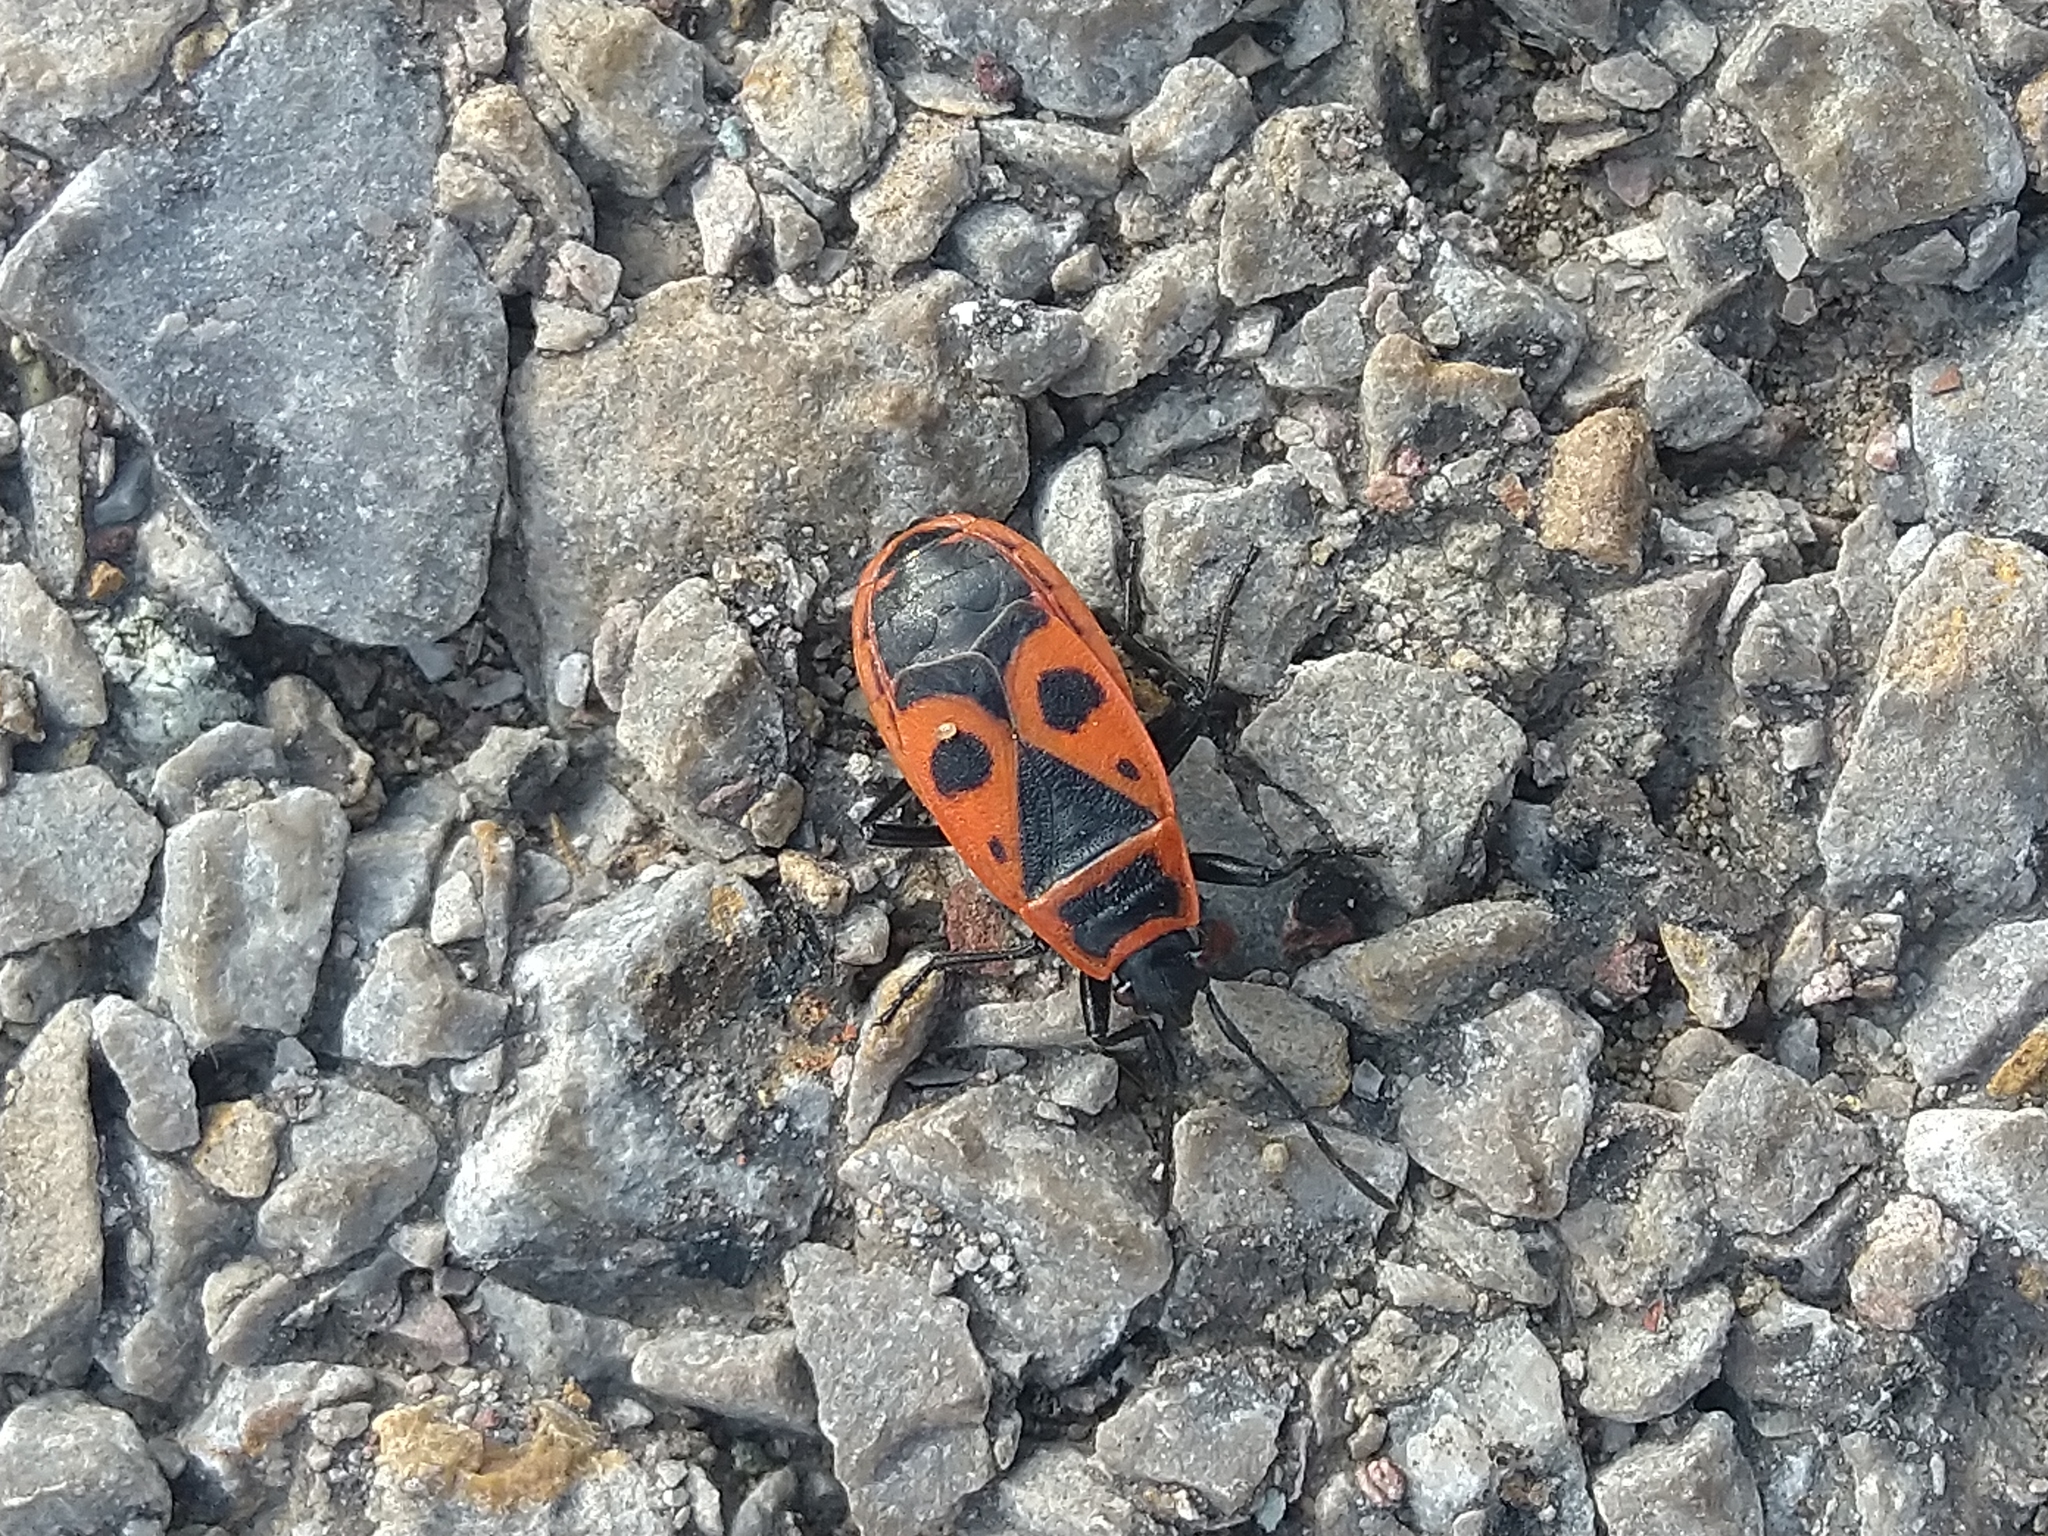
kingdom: Animalia
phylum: Arthropoda
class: Insecta
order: Hemiptera
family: Pyrrhocoridae
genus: Pyrrhocoris
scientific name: Pyrrhocoris apterus
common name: Firebug
